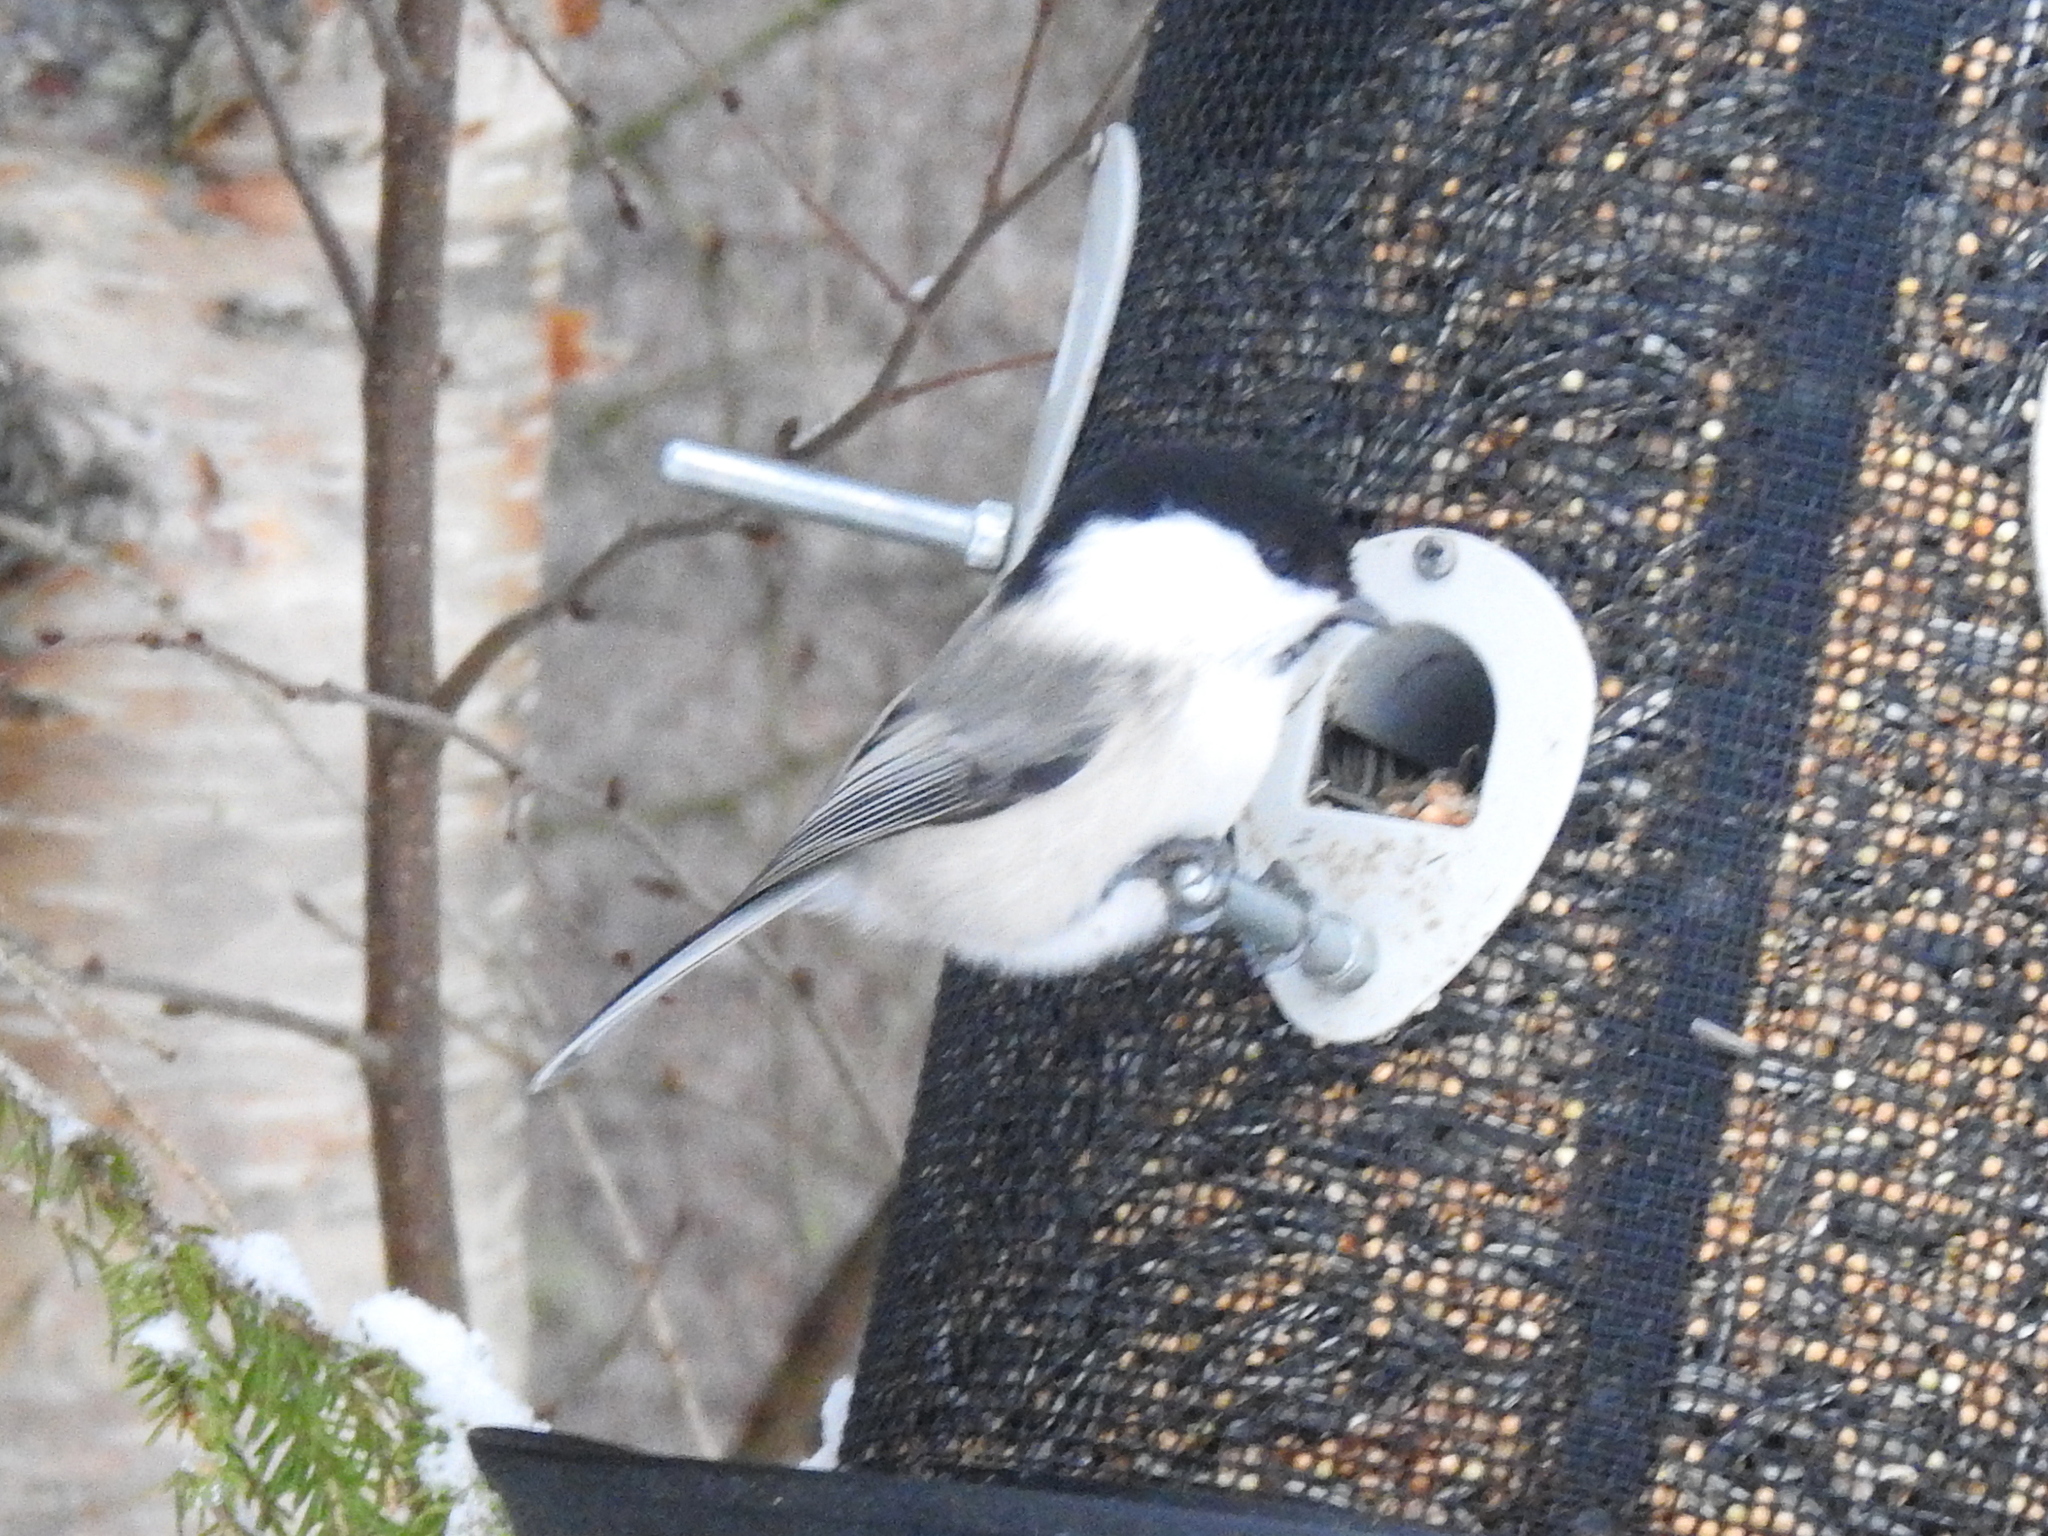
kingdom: Animalia
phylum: Chordata
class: Aves
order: Passeriformes
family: Paridae
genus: Poecile
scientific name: Poecile montanus
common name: Willow tit
